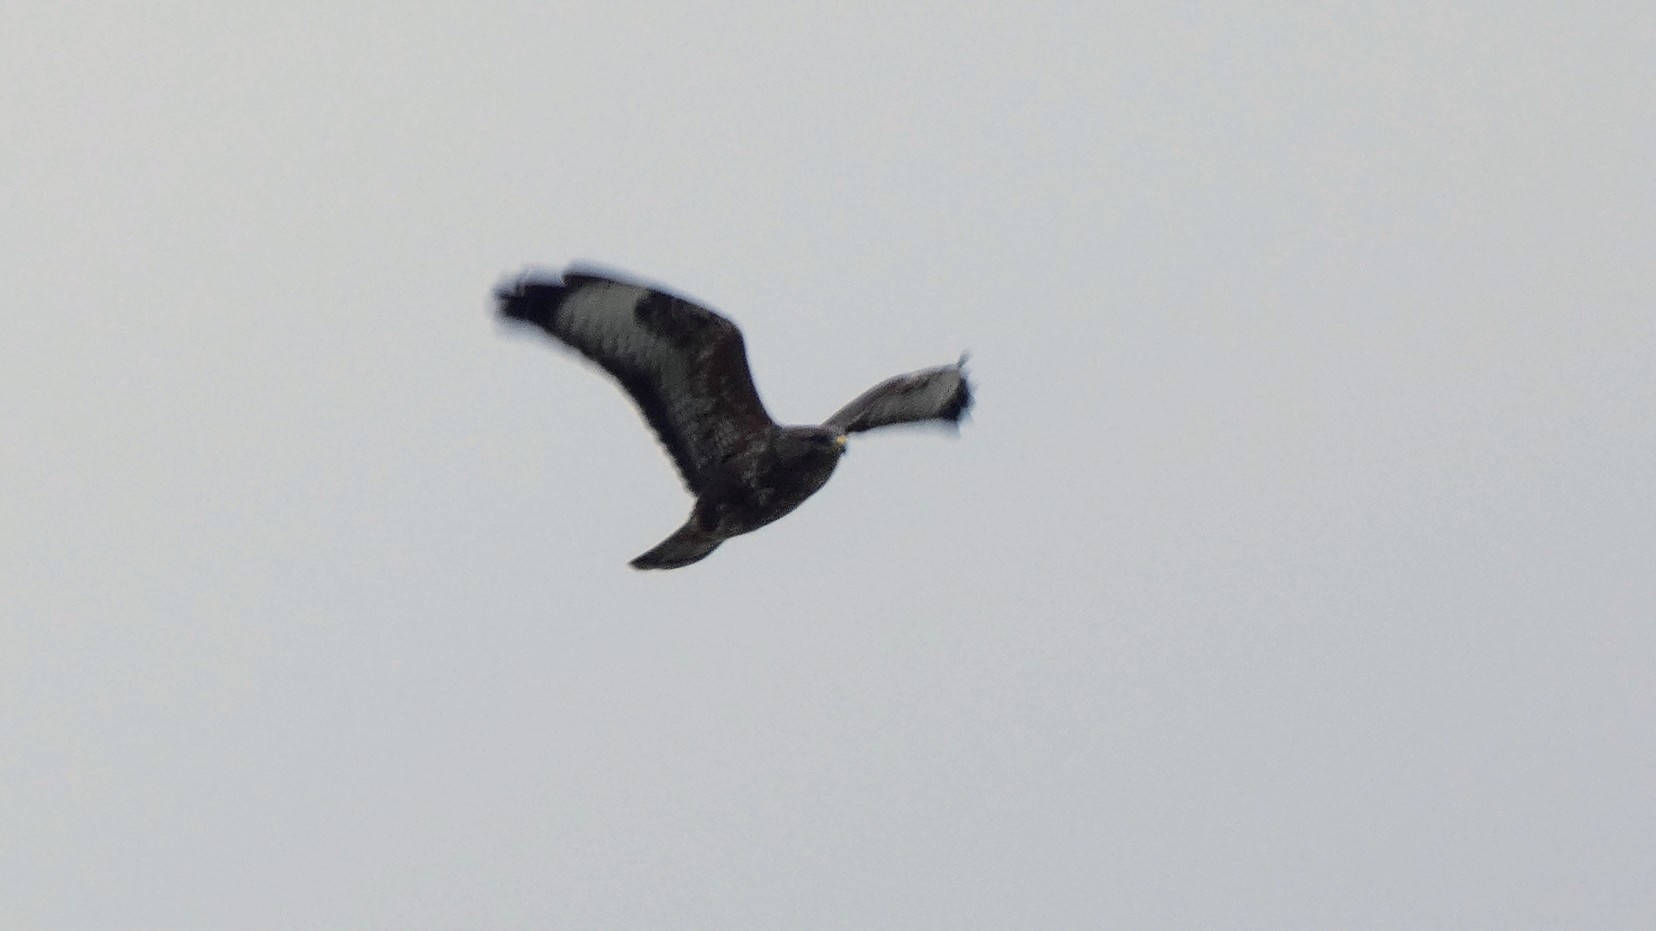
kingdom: Animalia
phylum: Chordata
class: Aves
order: Accipitriformes
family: Accipitridae
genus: Buteo
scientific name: Buteo buteo
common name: Common buzzard
